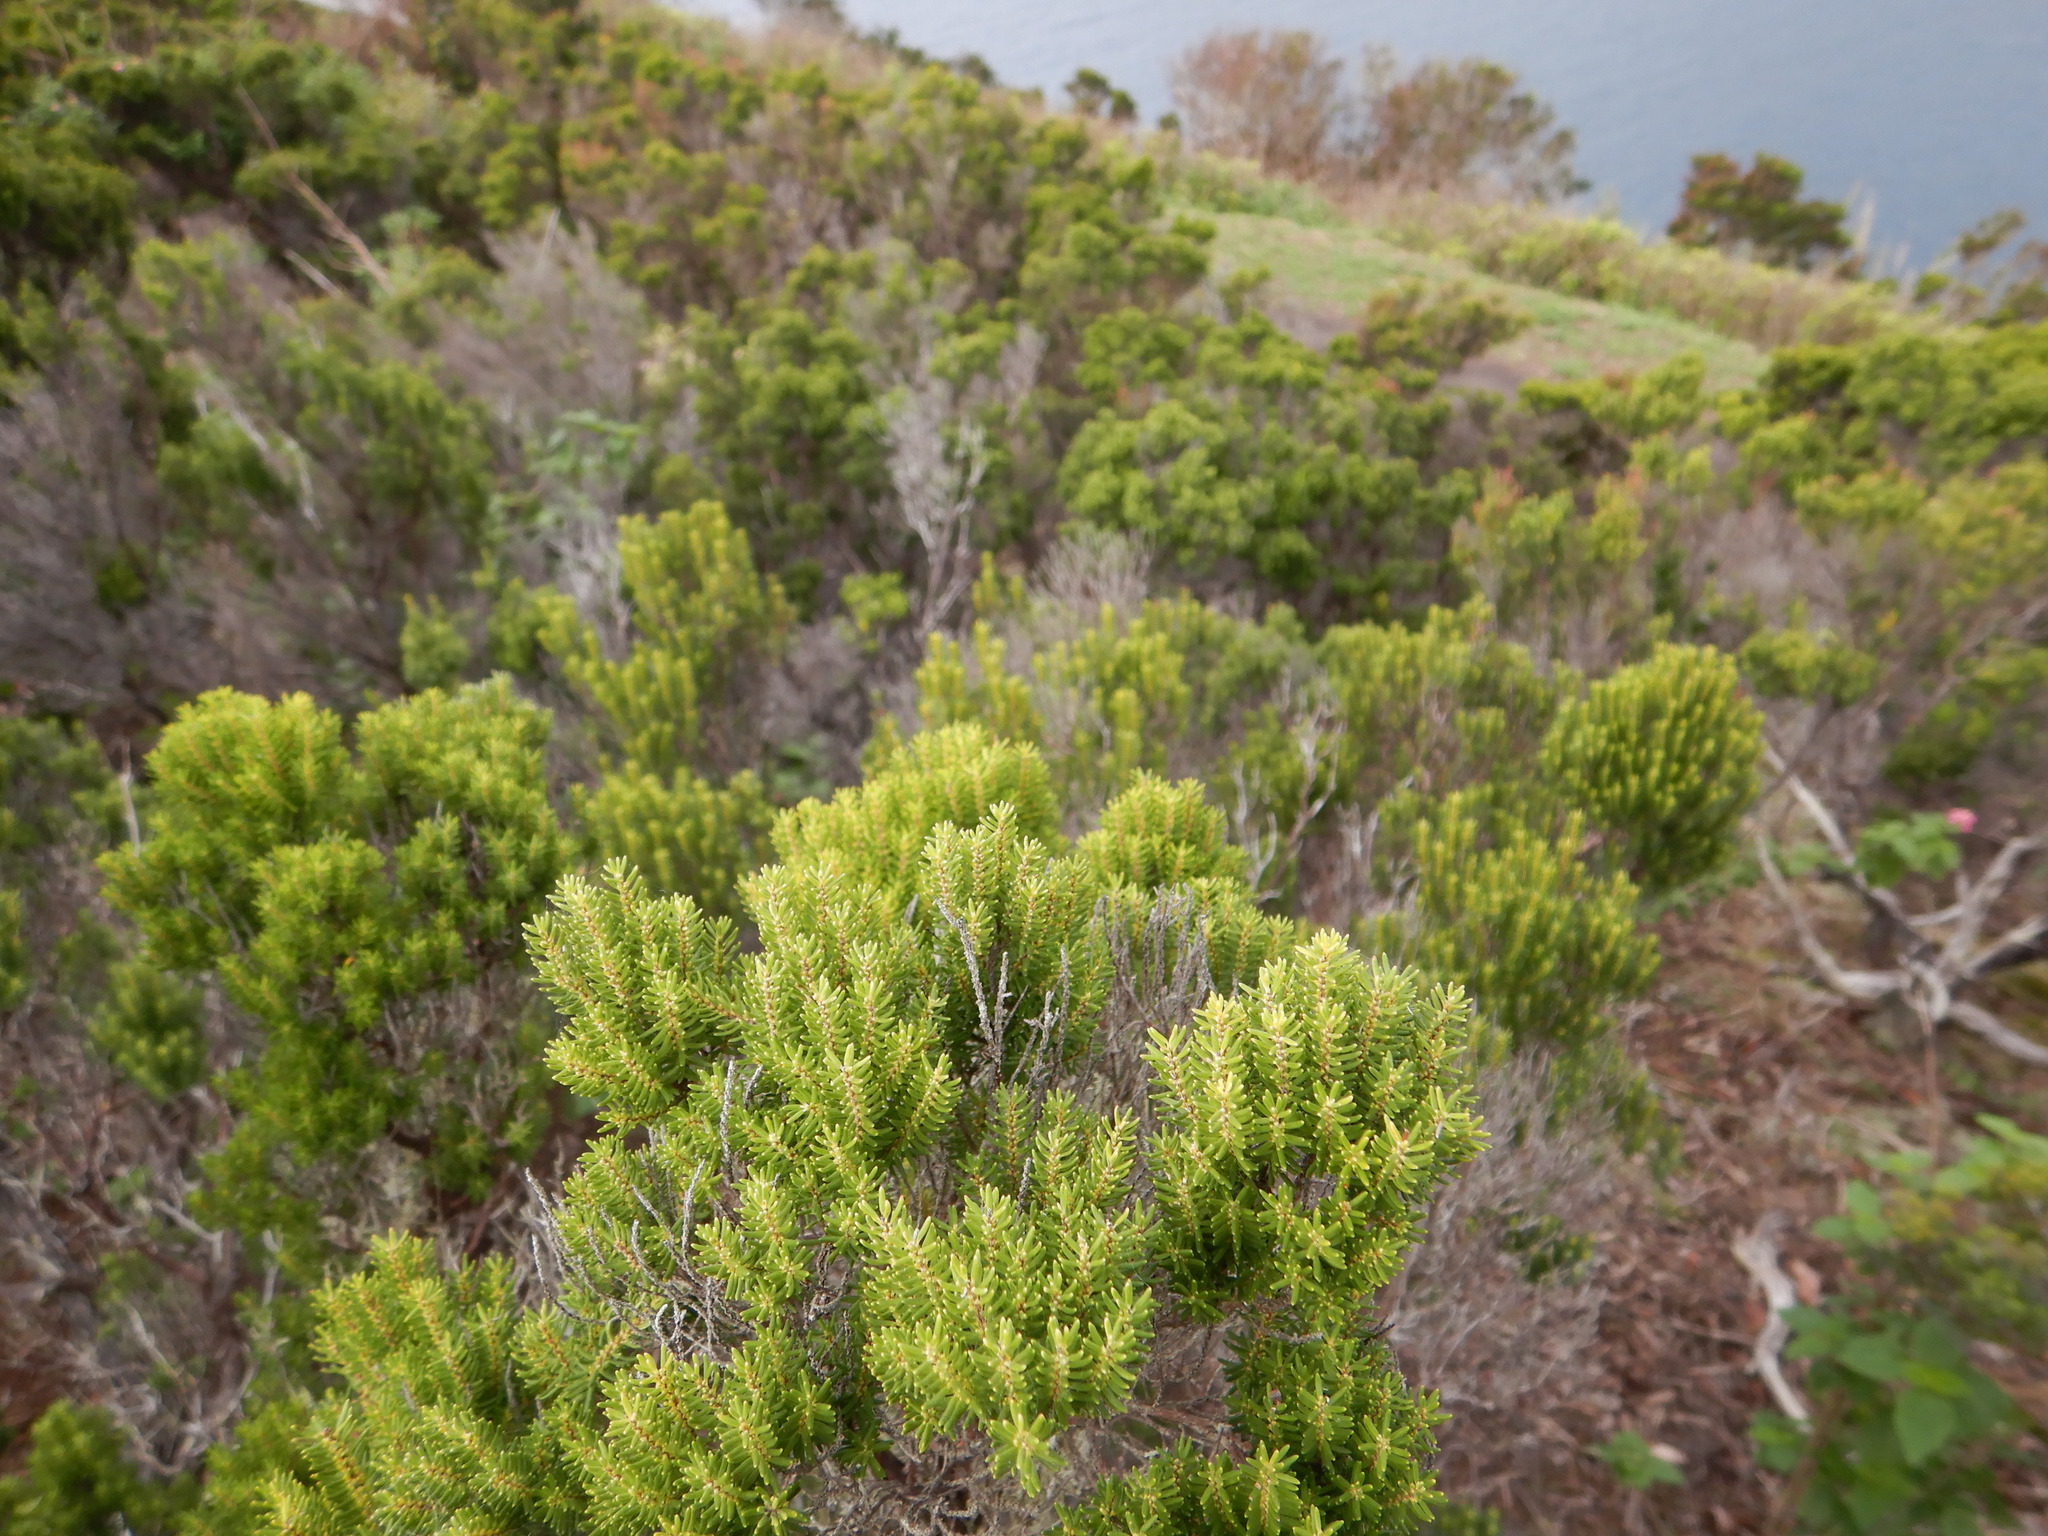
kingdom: Plantae
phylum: Tracheophyta
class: Magnoliopsida
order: Ericales
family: Ericaceae
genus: Erica
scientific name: Erica azorica
